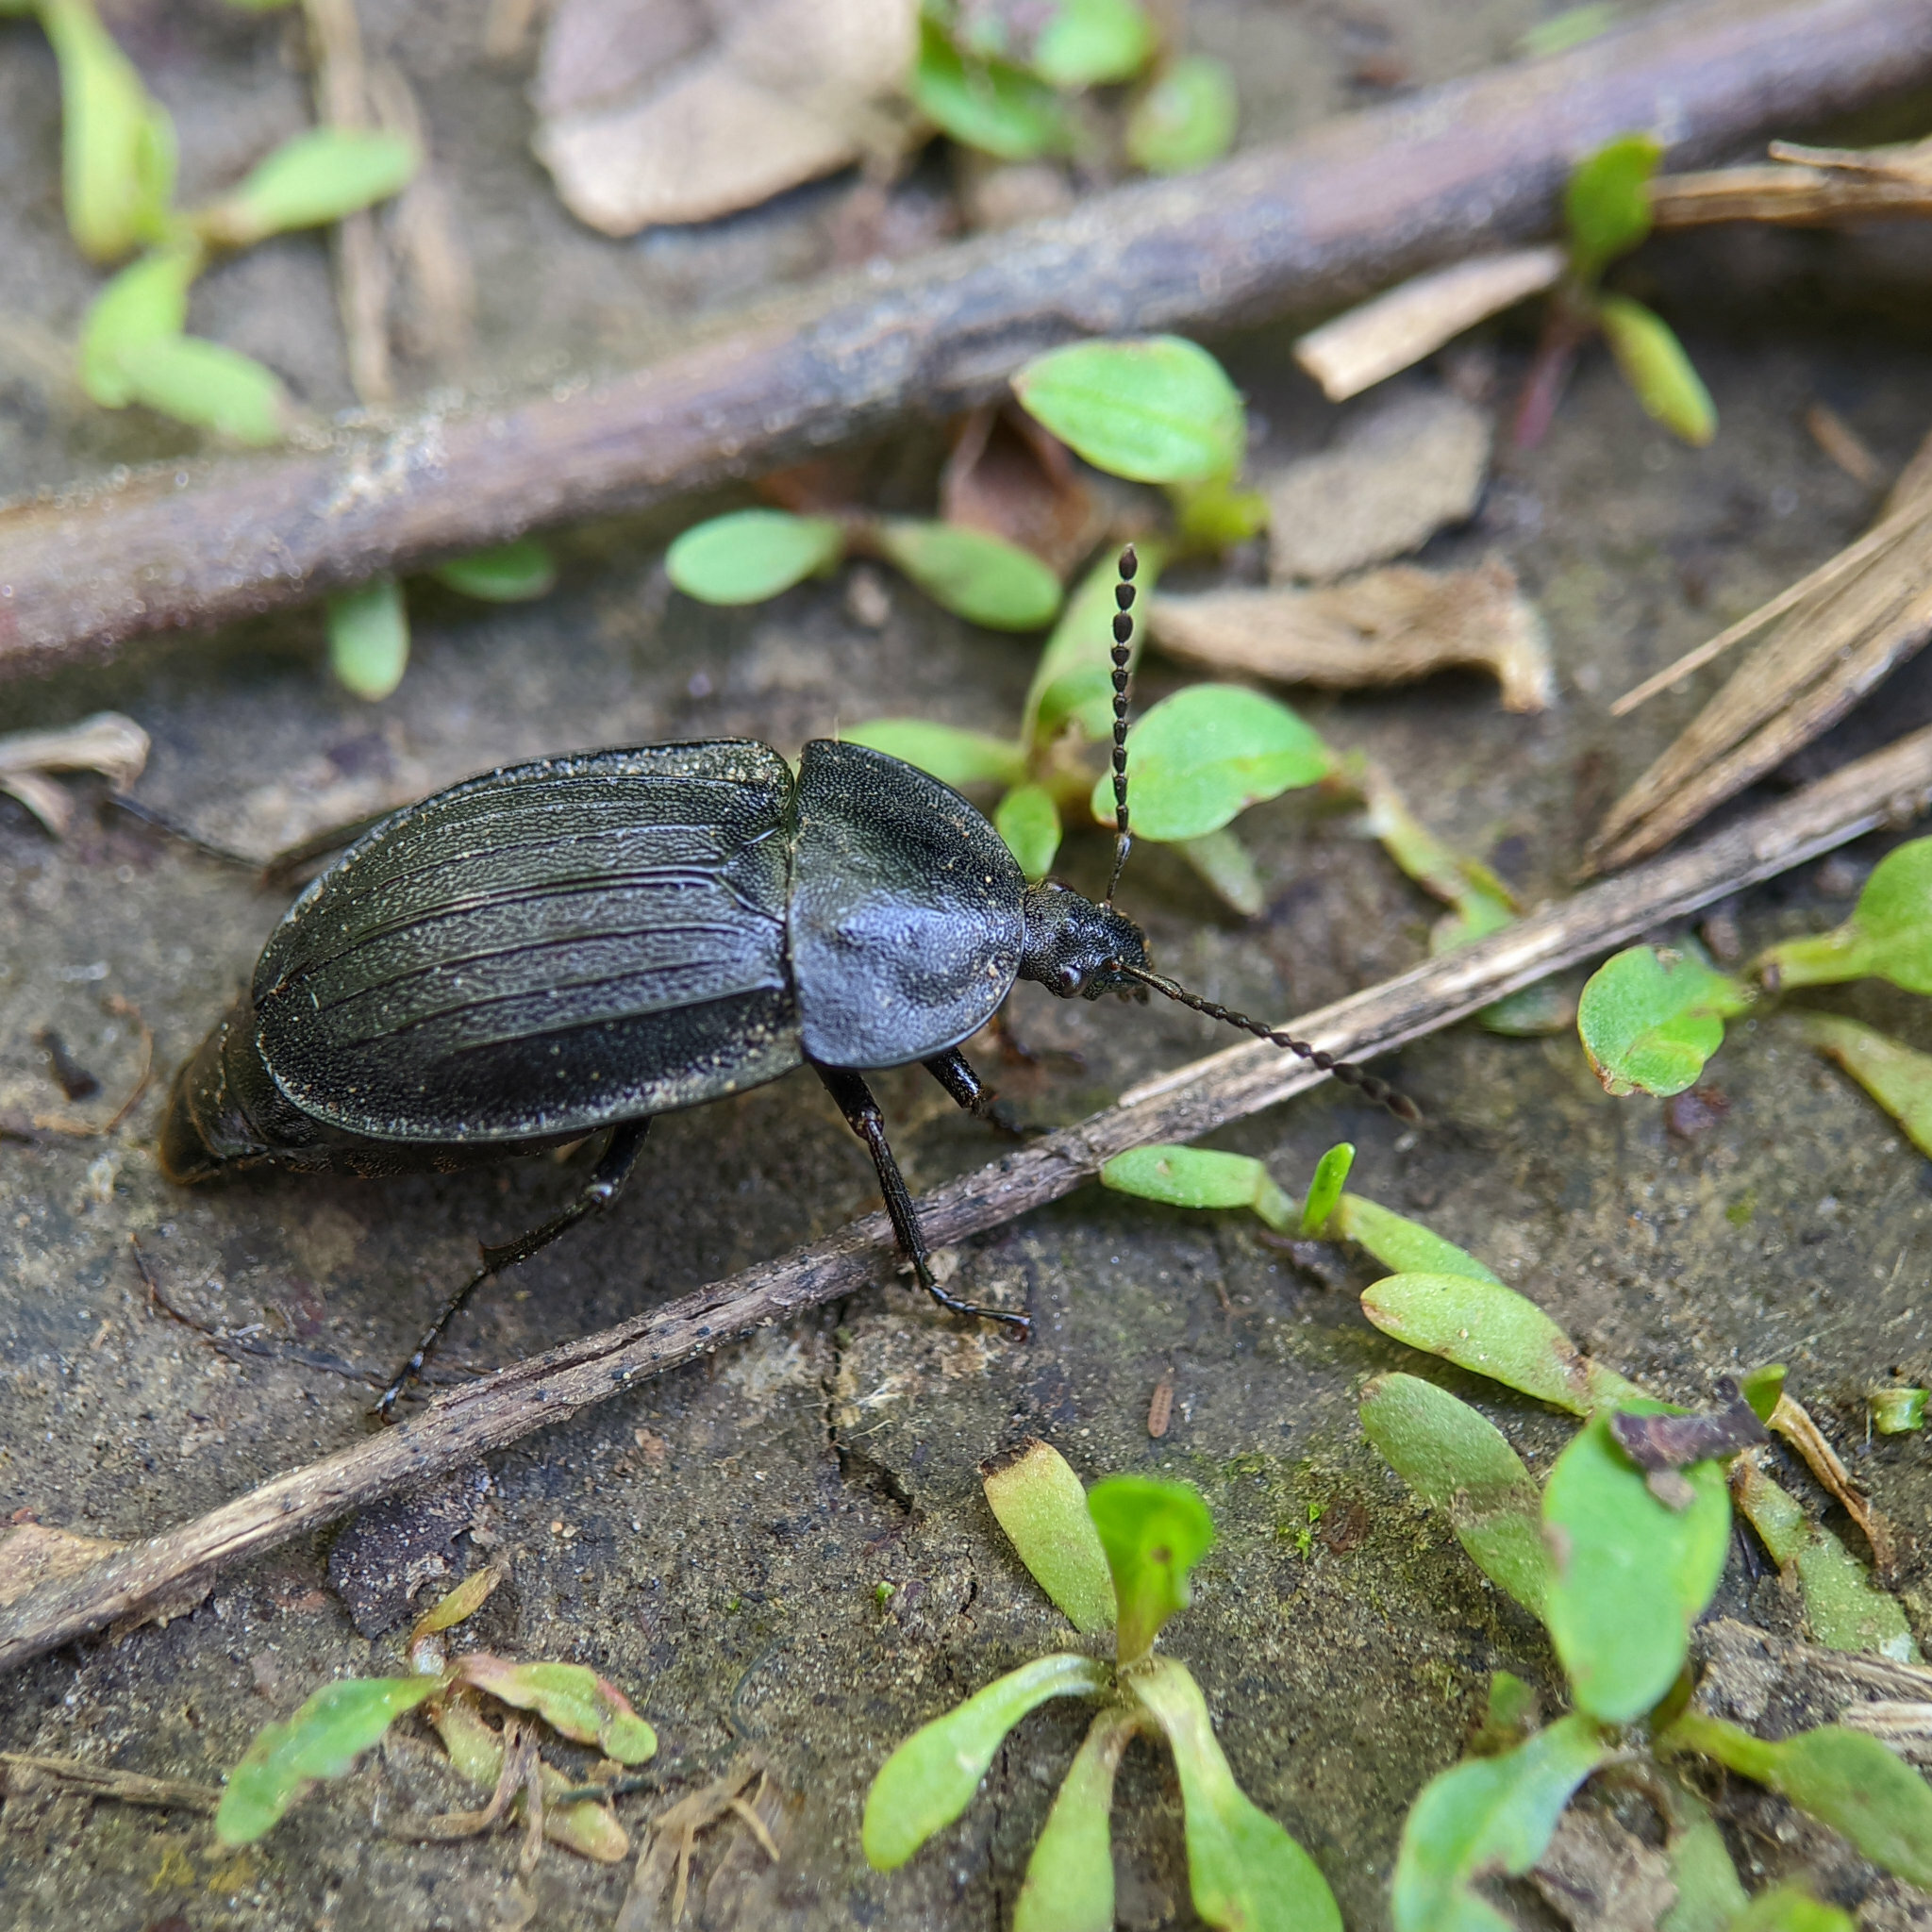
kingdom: Animalia
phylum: Arthropoda
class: Insecta
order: Coleoptera
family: Staphylinidae
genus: Silpha
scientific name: Silpha atrata
